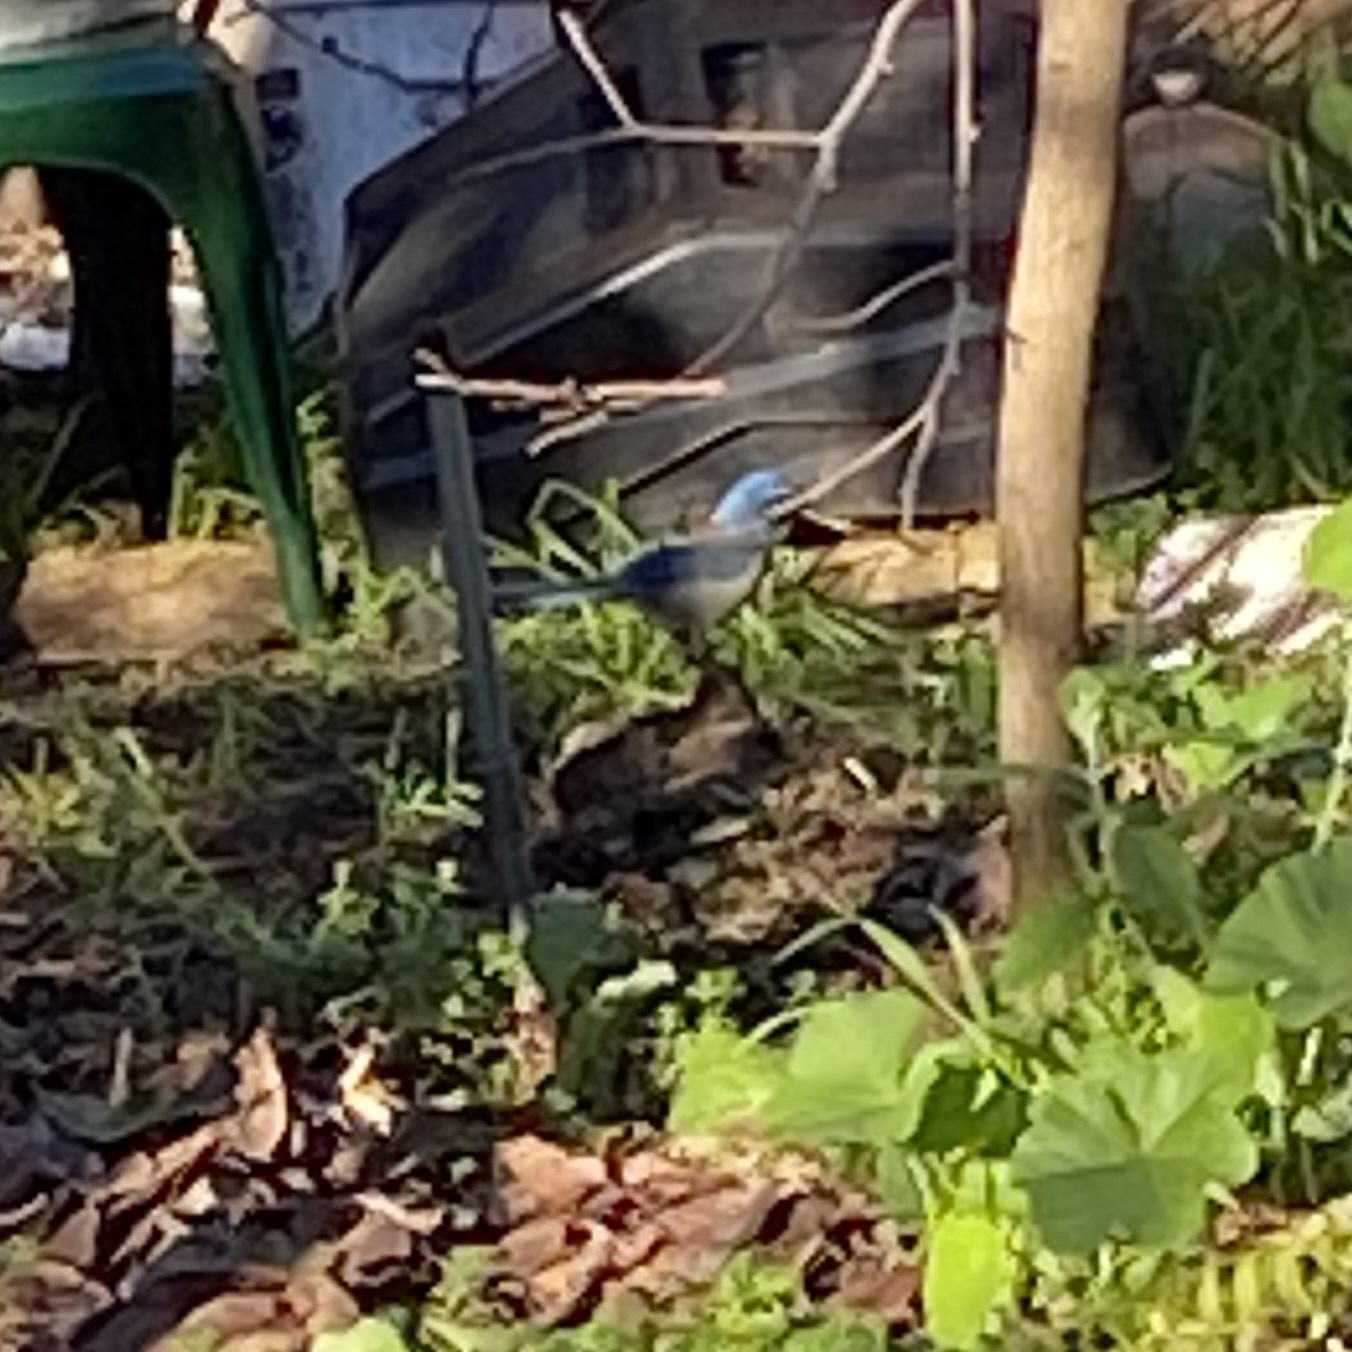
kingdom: Animalia
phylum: Chordata
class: Aves
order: Passeriformes
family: Corvidae
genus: Aphelocoma
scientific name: Aphelocoma californica
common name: California scrub-jay
